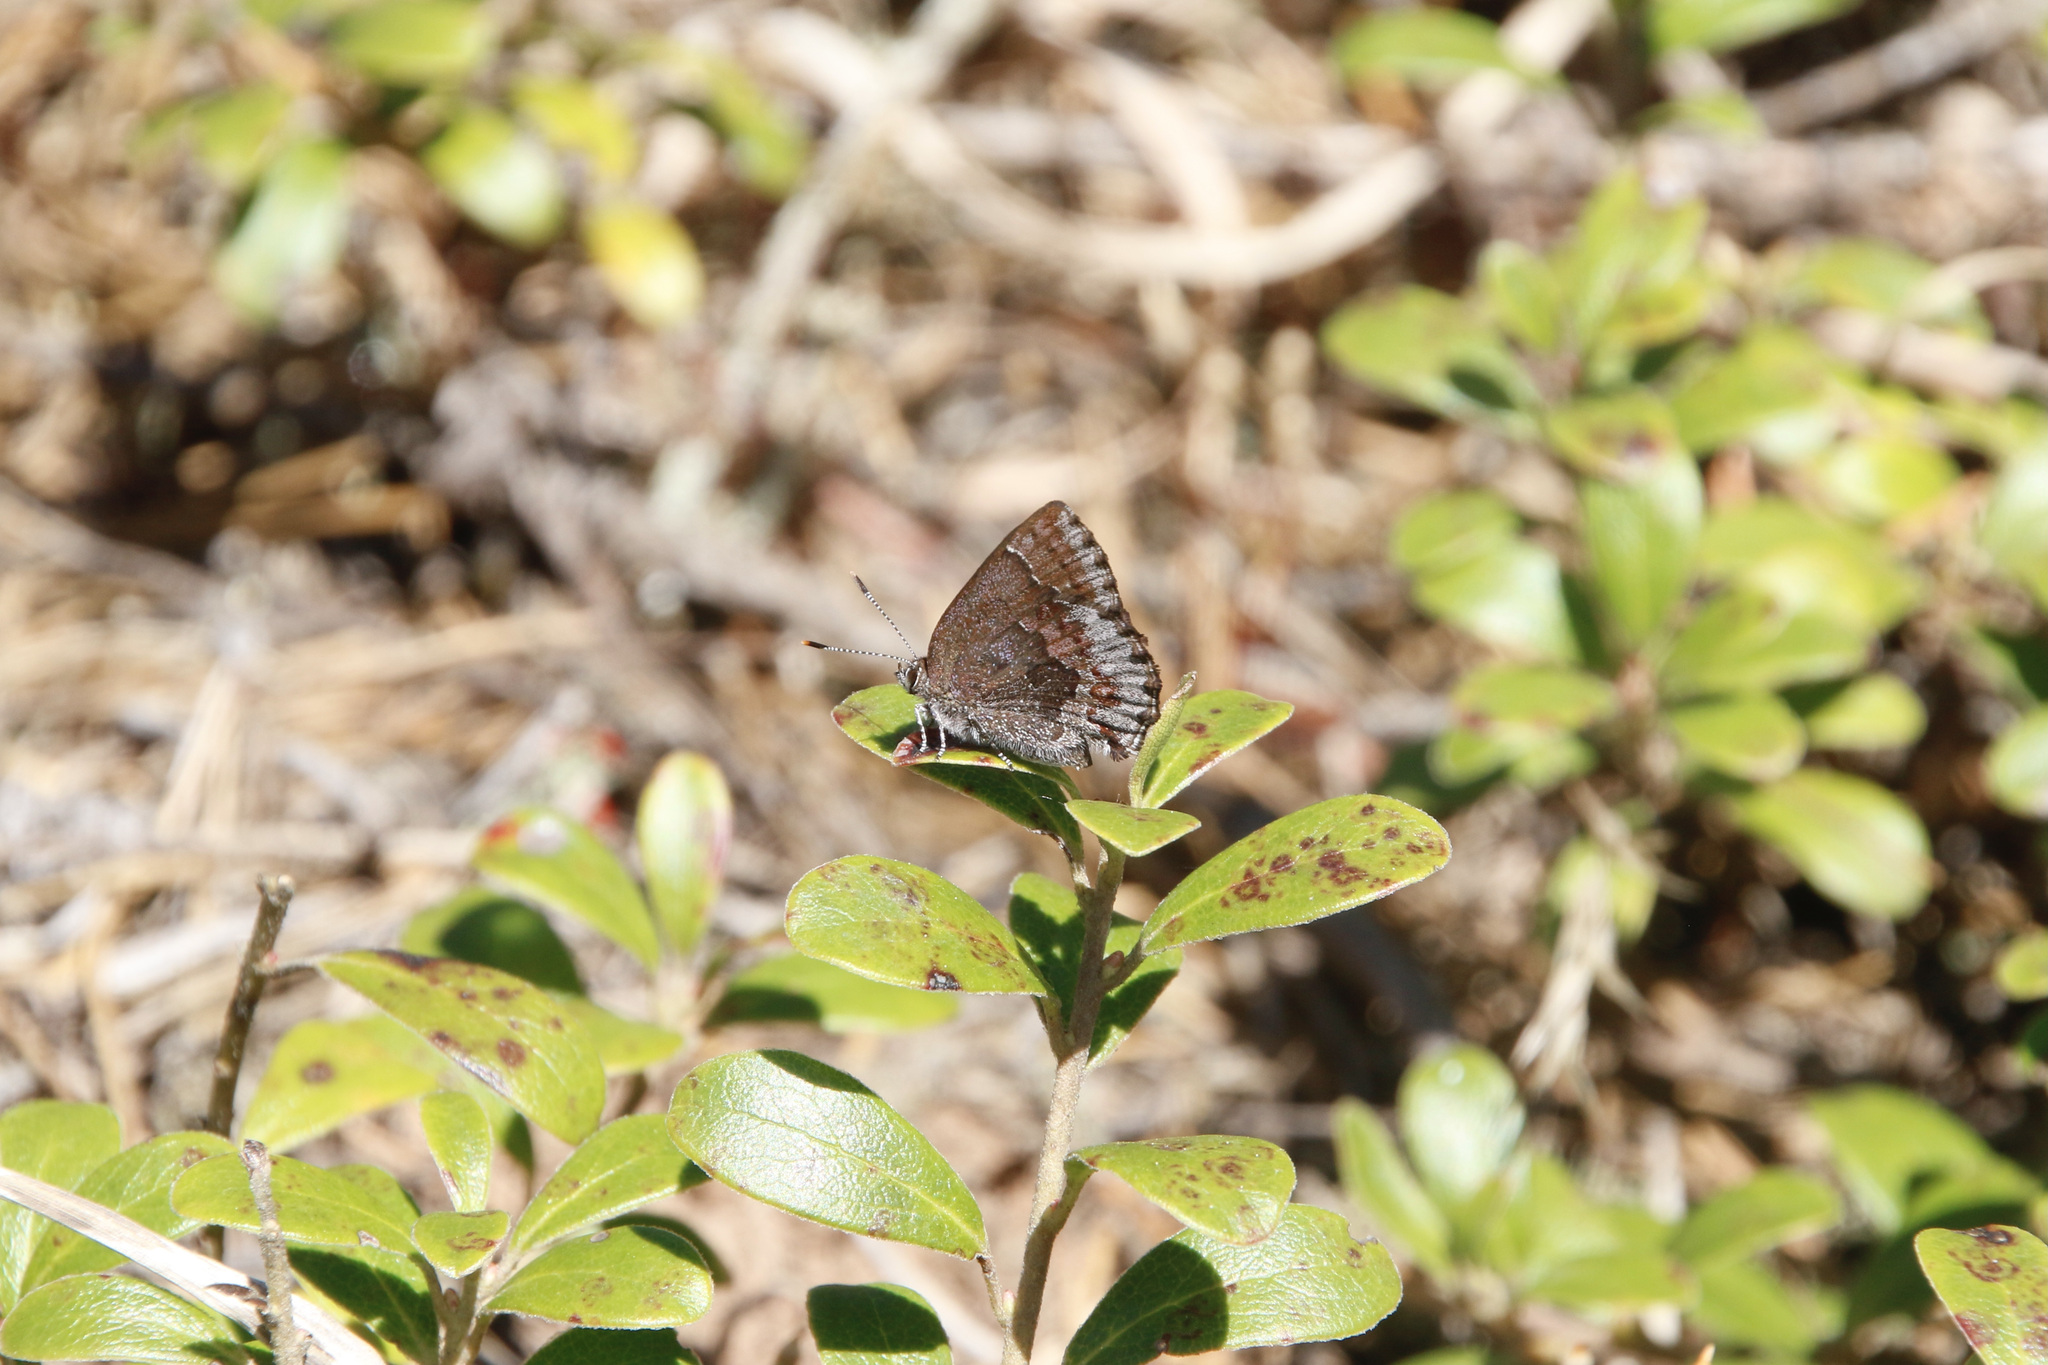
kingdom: Animalia
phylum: Arthropoda
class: Insecta
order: Lepidoptera
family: Lycaenidae
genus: Callophrys
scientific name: Callophrys polios
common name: Hoary elfin
